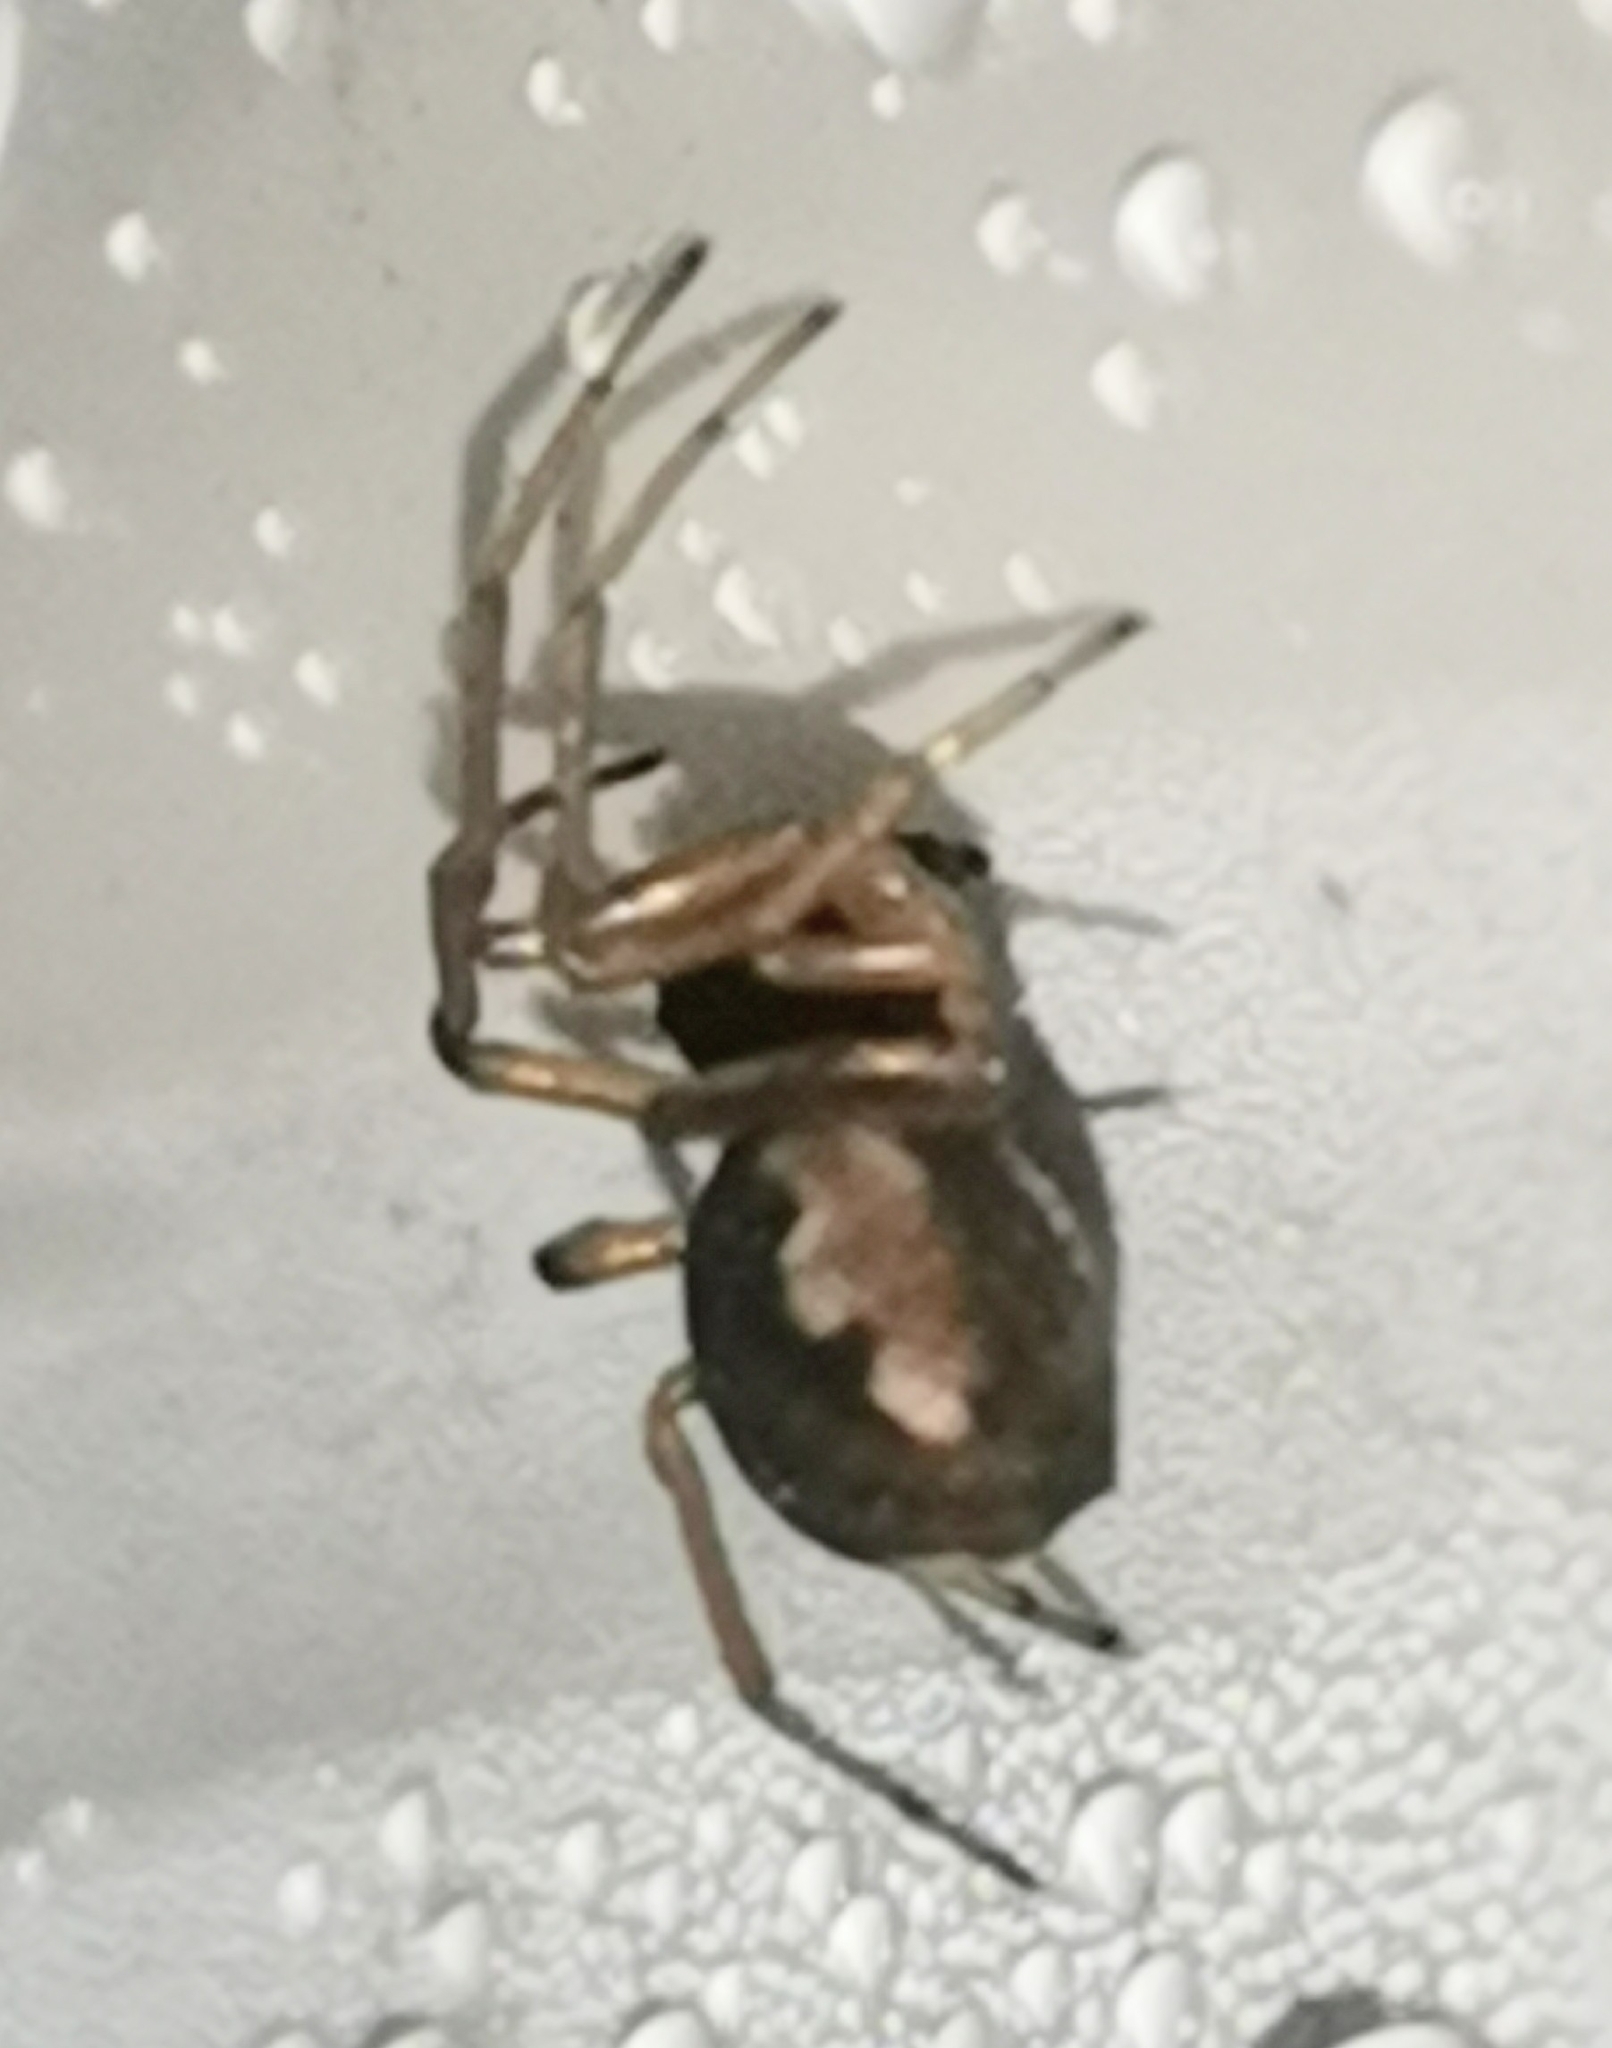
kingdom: Animalia
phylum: Arthropoda
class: Arachnida
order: Araneae
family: Tetragnathidae
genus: Pachygnatha
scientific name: Pachygnatha degeeri
